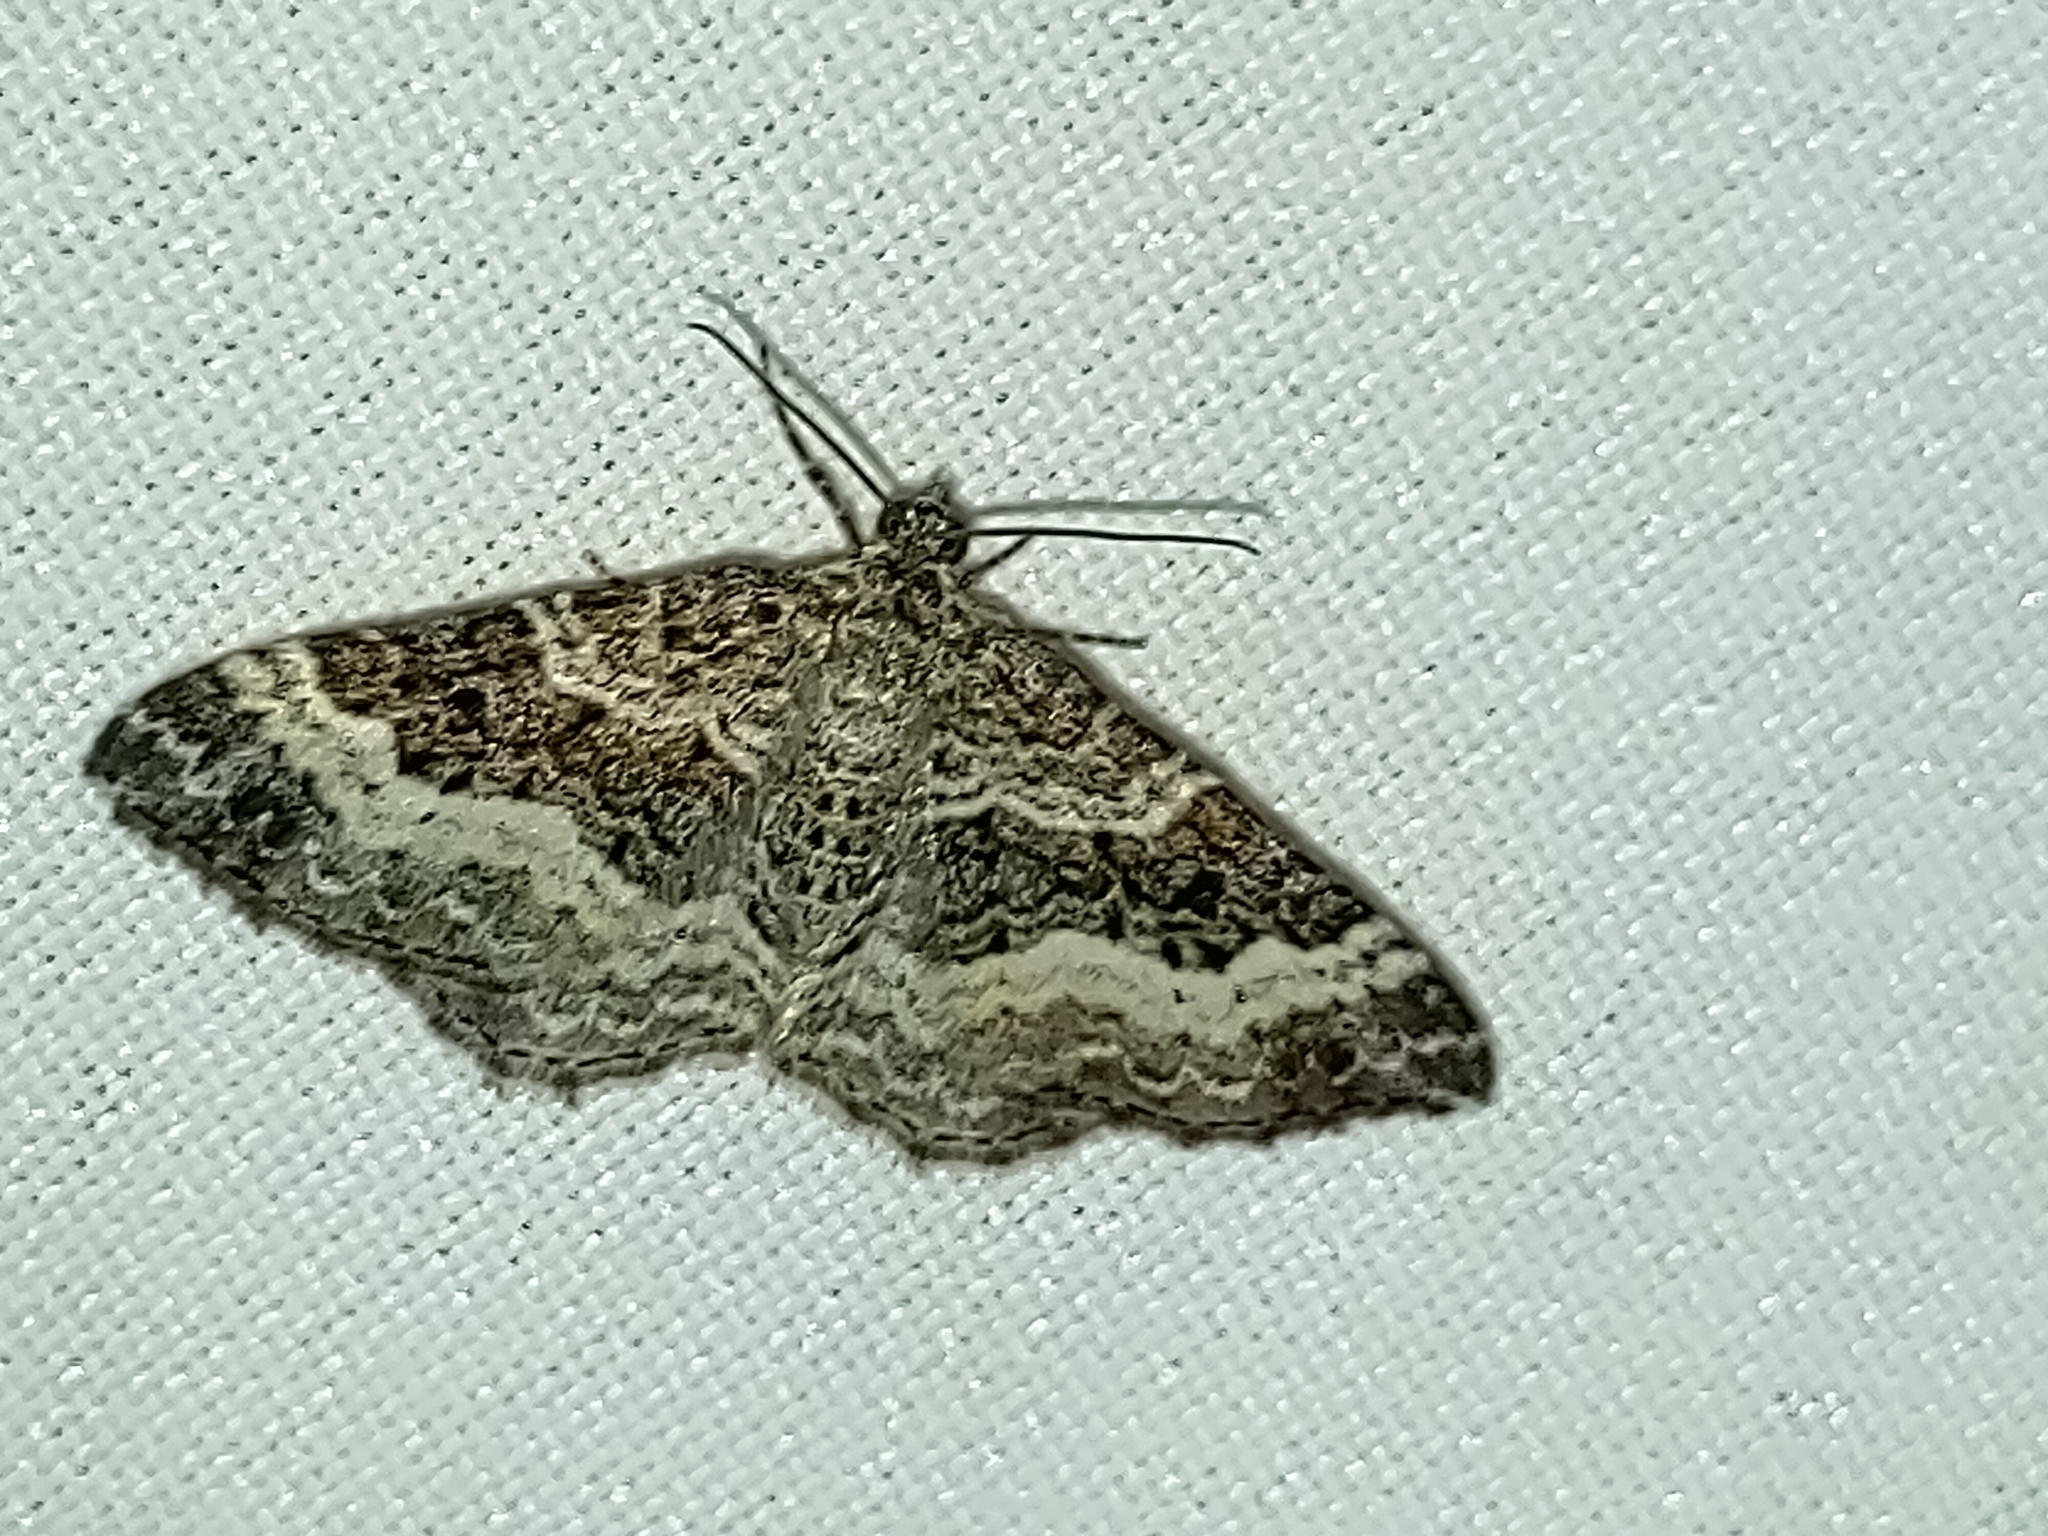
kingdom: Animalia
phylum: Arthropoda
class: Insecta
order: Lepidoptera
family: Geometridae
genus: Epirrhoe
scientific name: Epirrhoe alternata
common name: Common carpet
